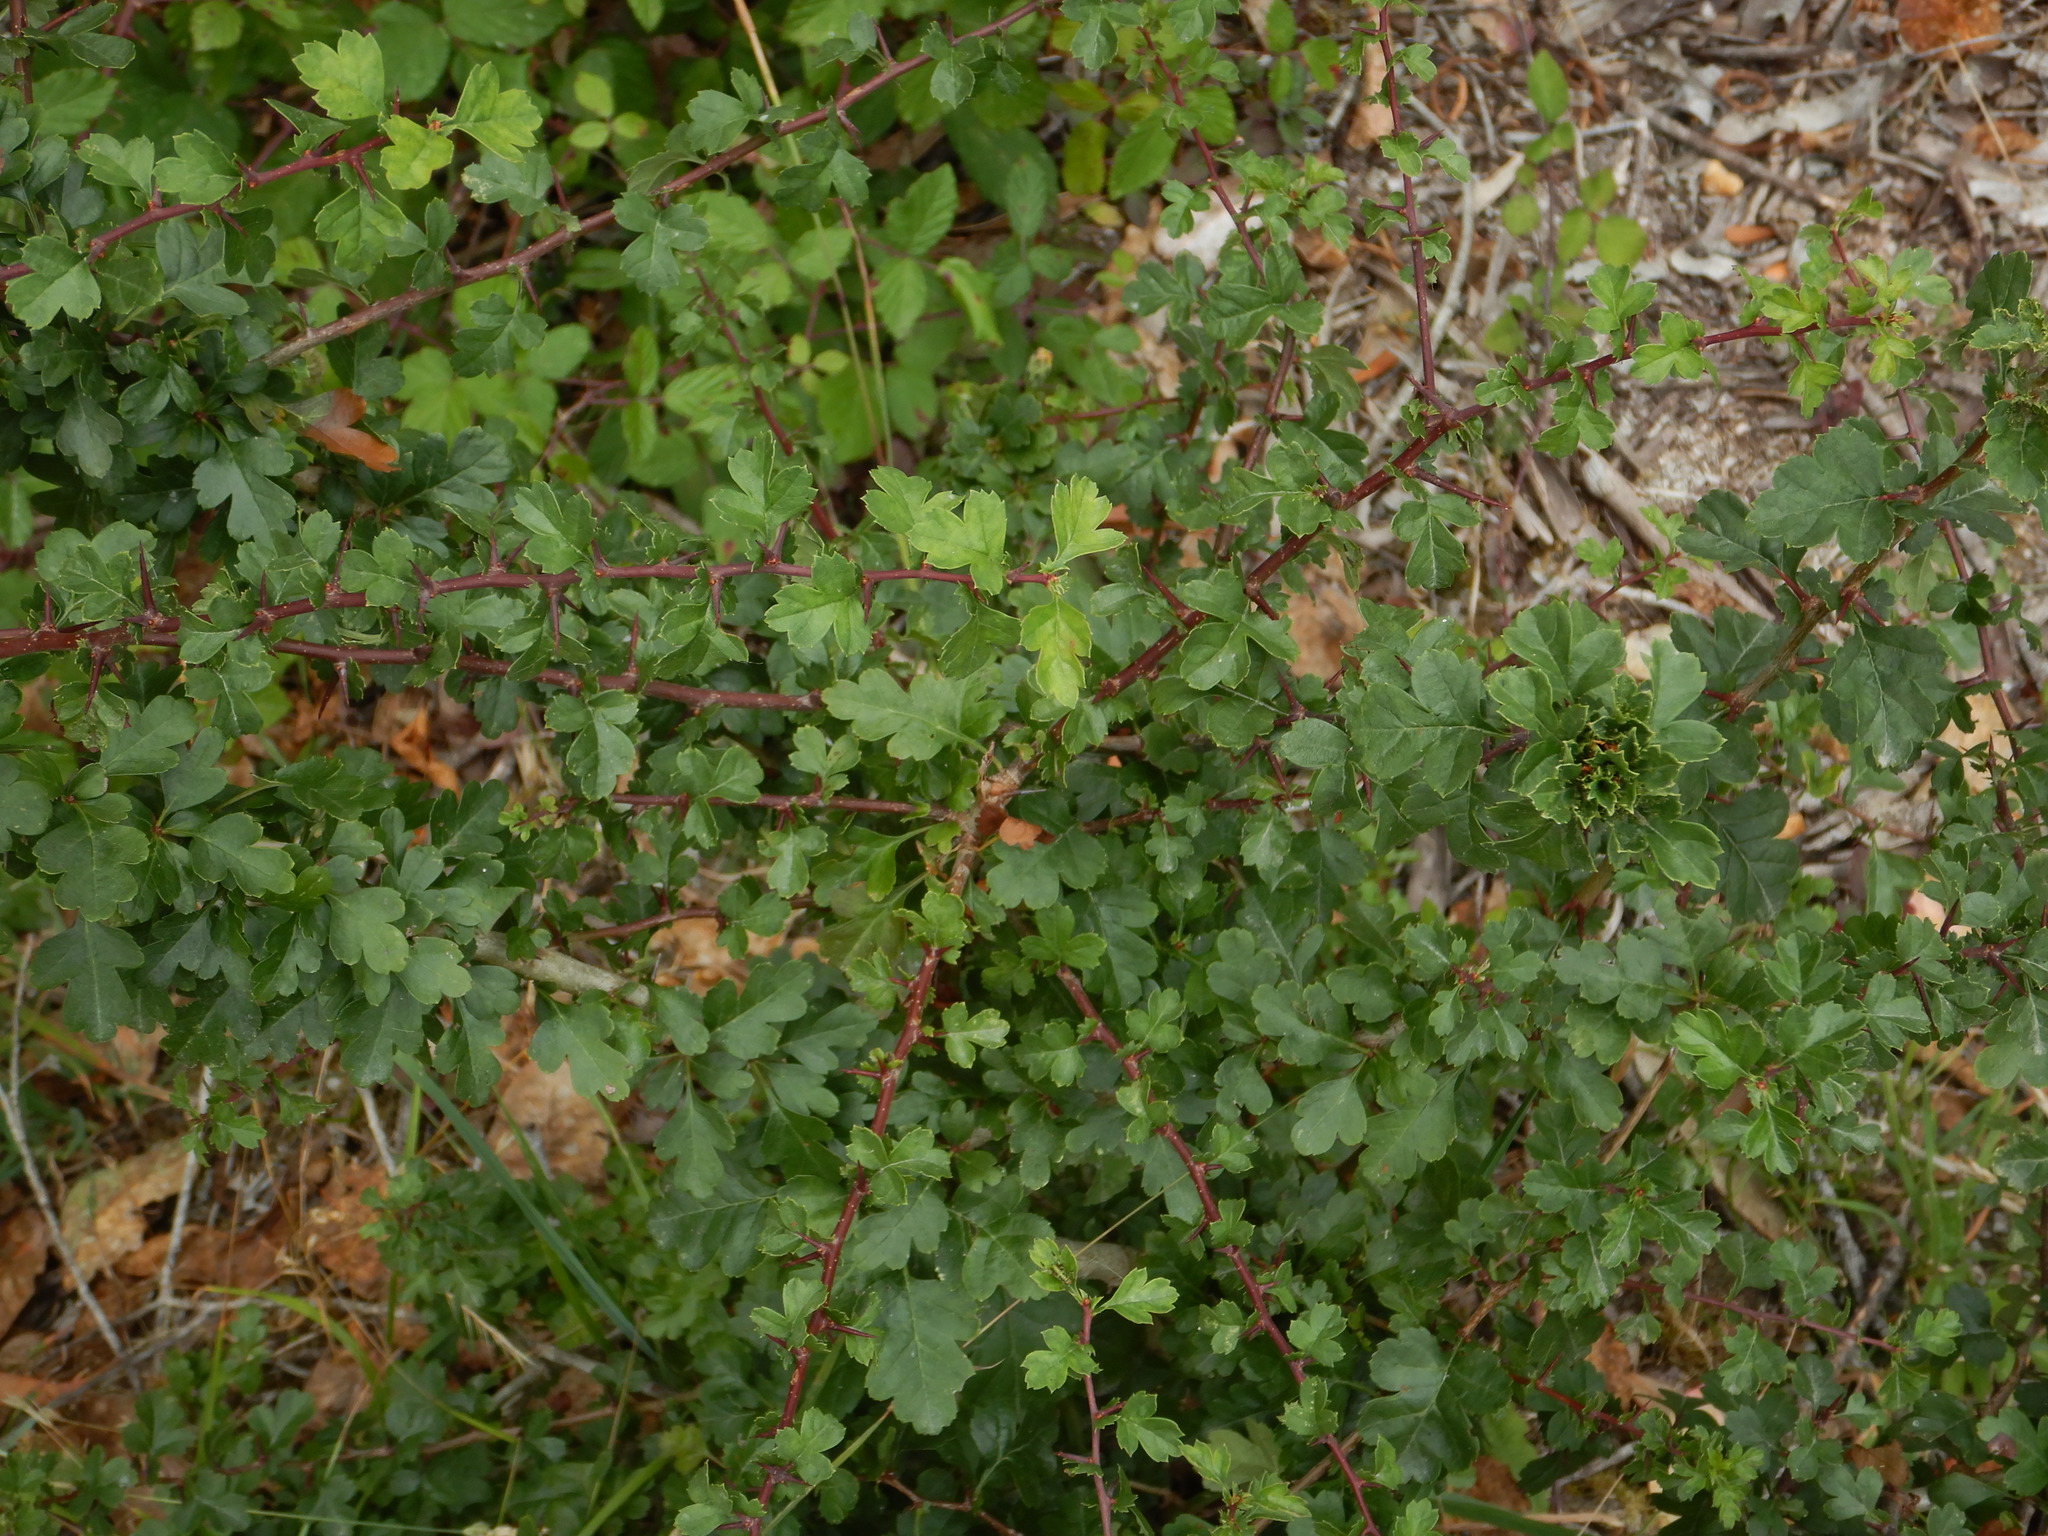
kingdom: Plantae
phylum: Tracheophyta
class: Magnoliopsida
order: Rosales
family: Rosaceae
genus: Crataegus
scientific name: Crataegus monogyna
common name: Hawthorn
